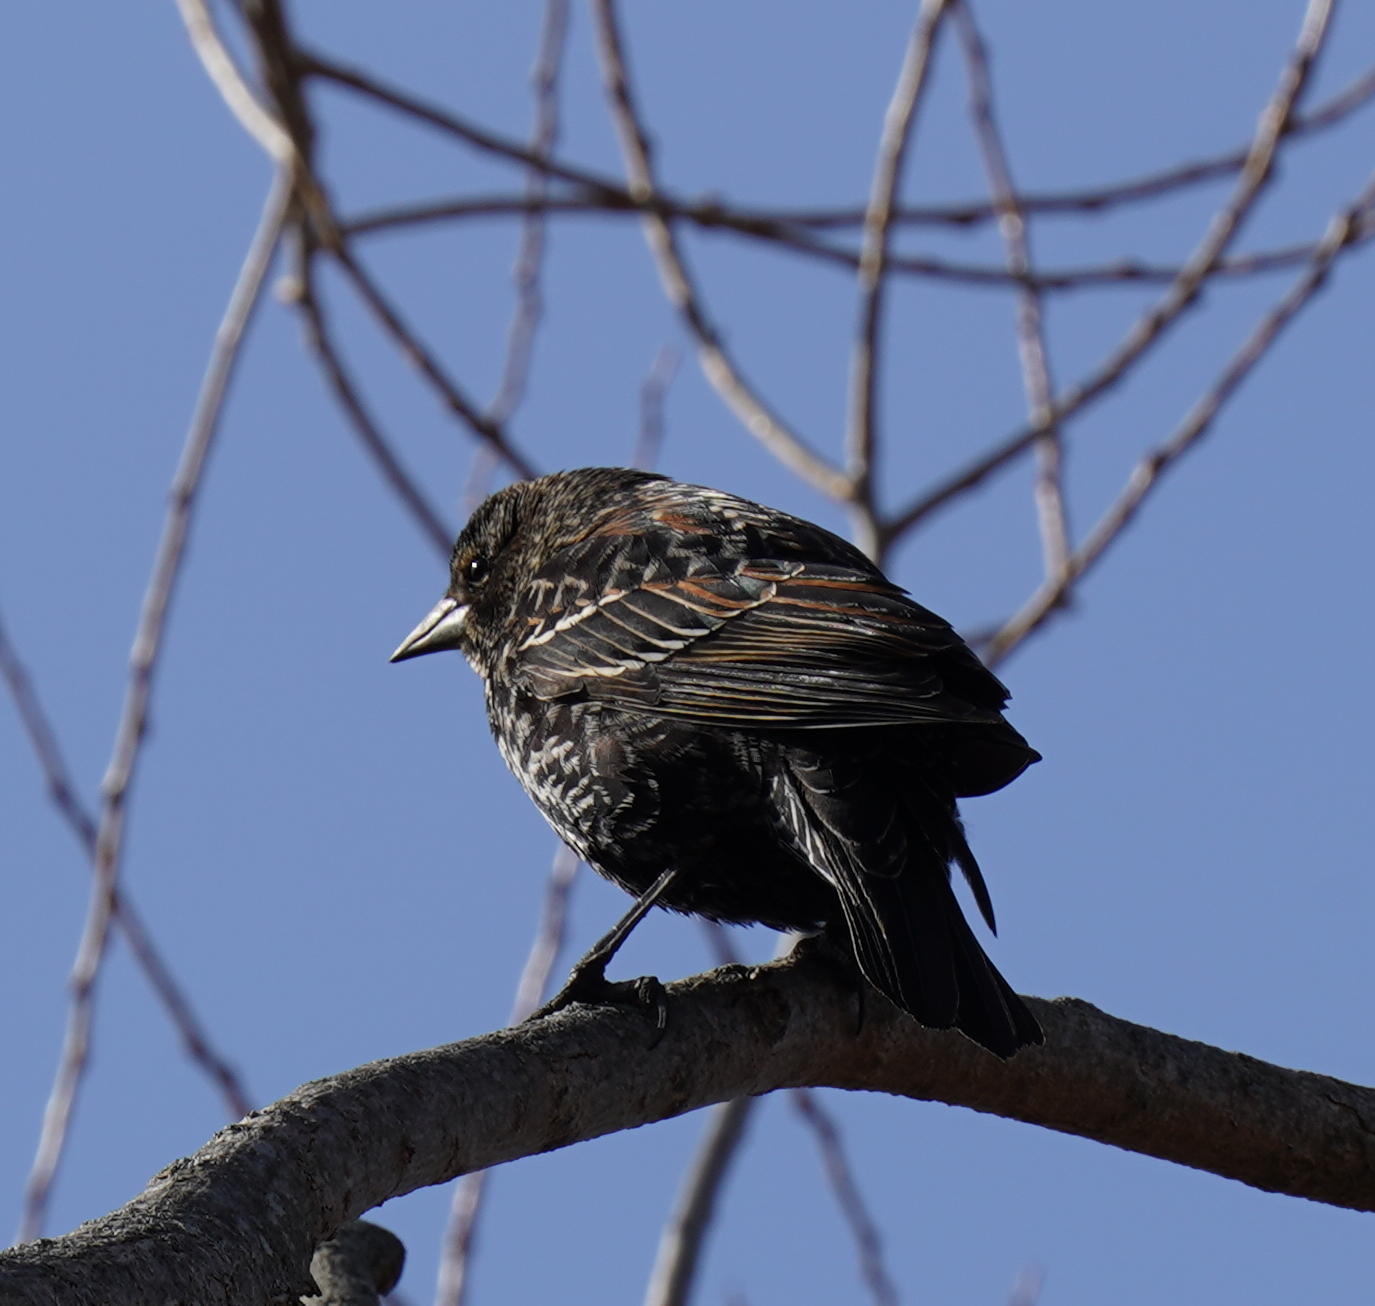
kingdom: Animalia
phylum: Chordata
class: Aves
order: Passeriformes
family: Icteridae
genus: Agelaius
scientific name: Agelaius phoeniceus
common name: Red-winged blackbird
